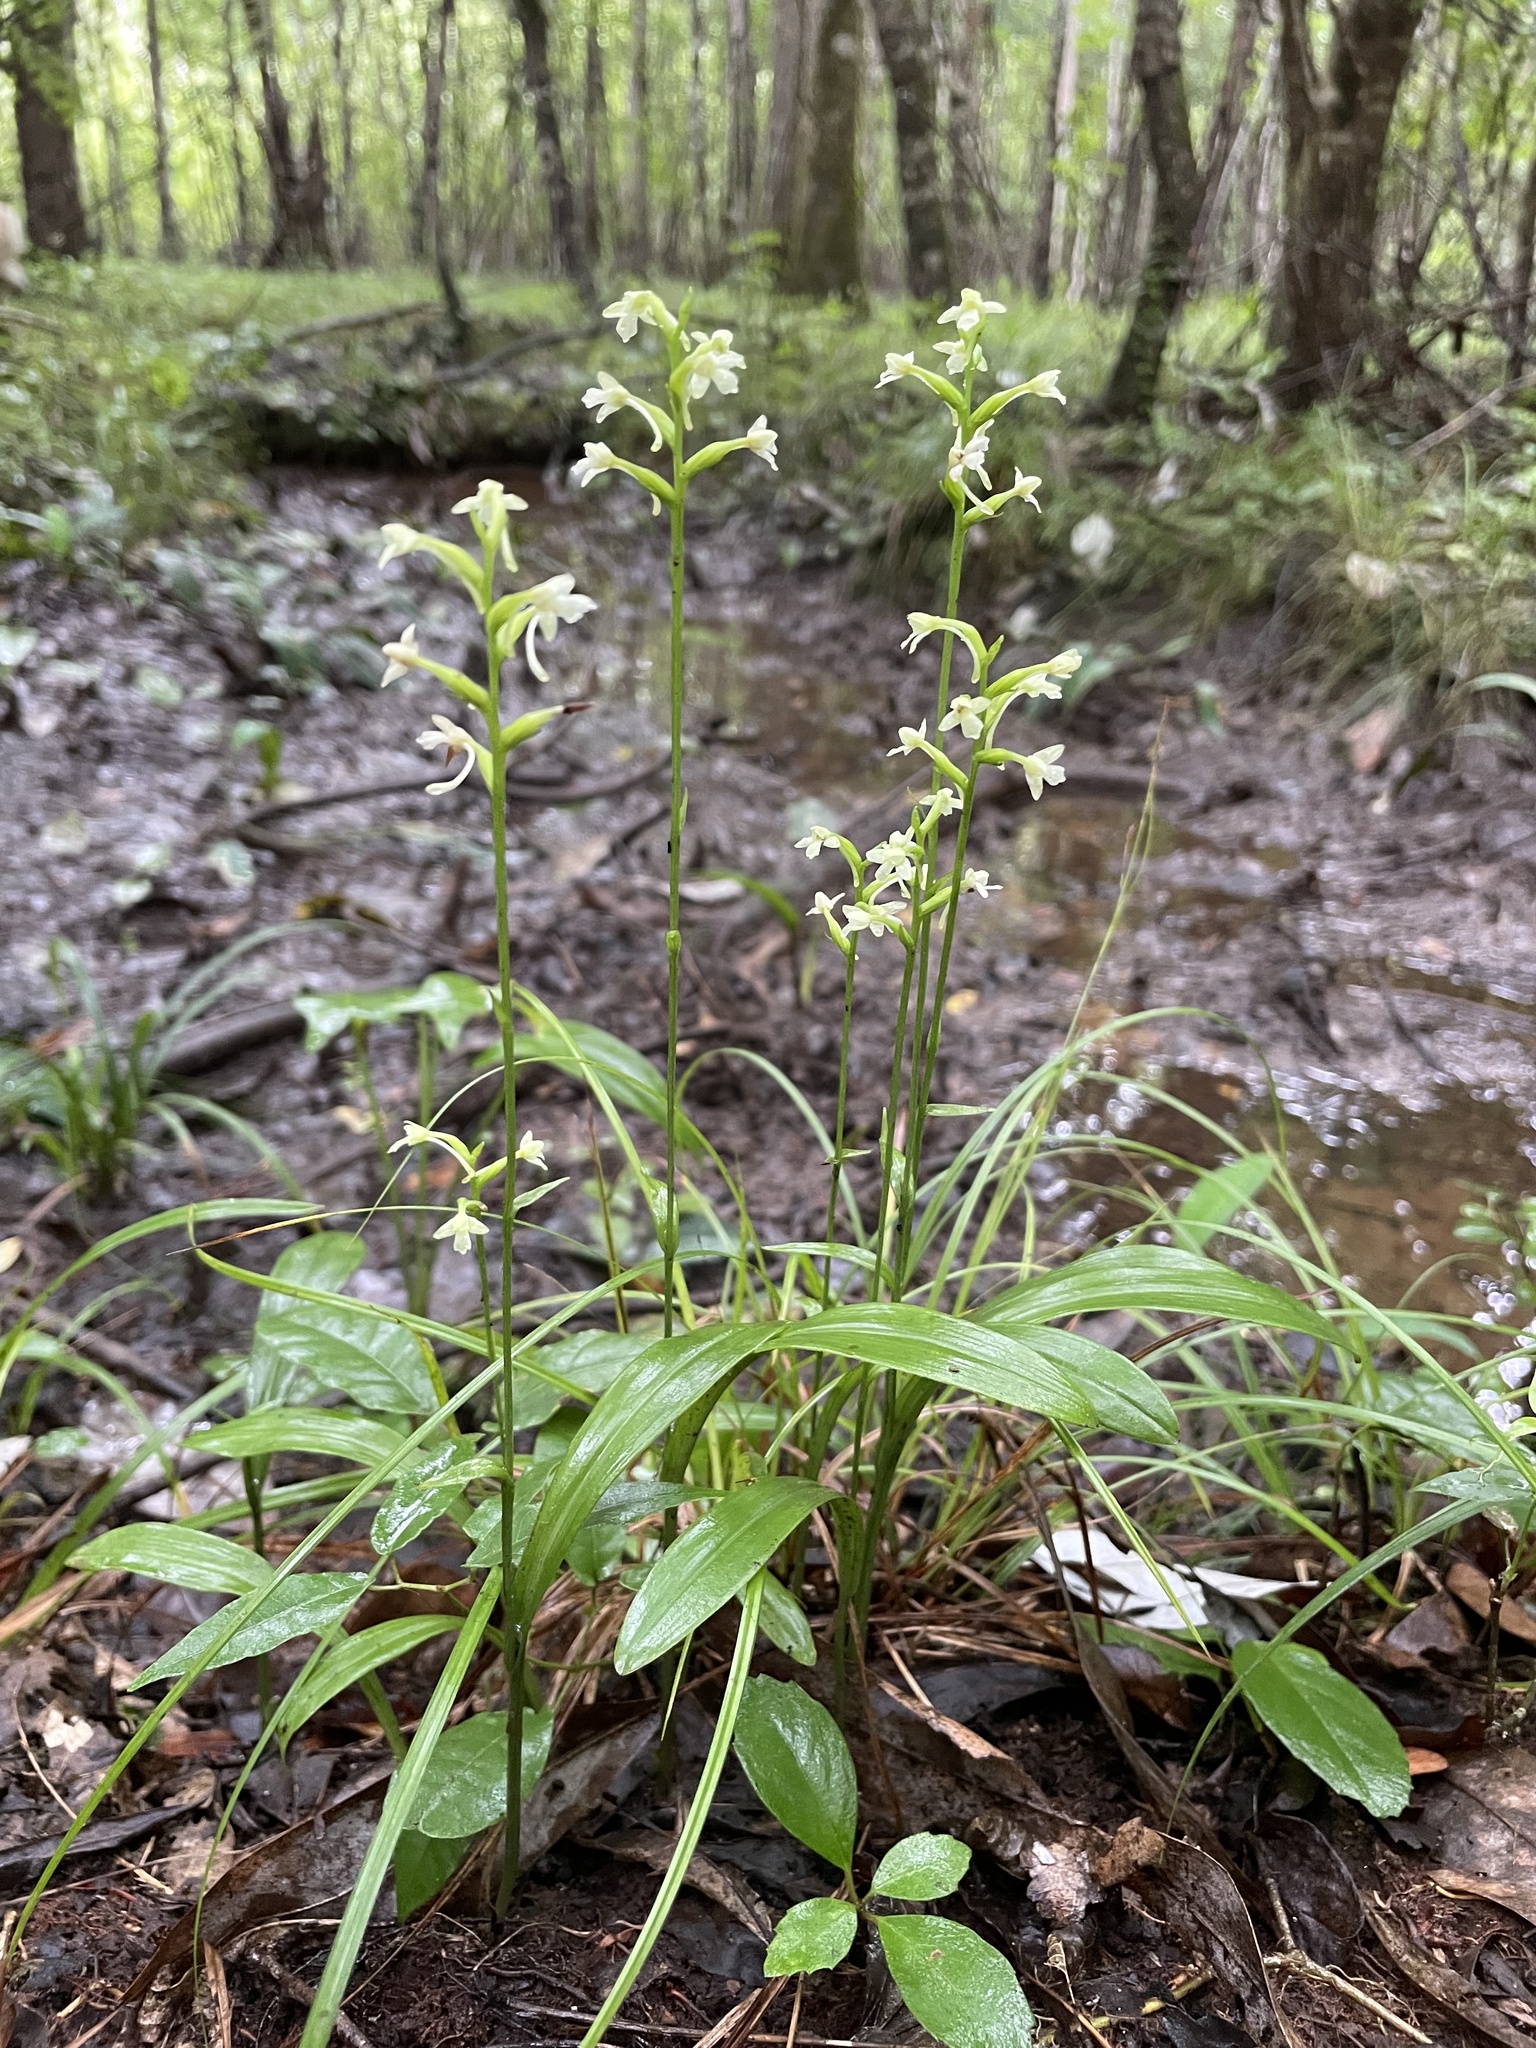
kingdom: Plantae
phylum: Tracheophyta
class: Liliopsida
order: Asparagales
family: Orchidaceae
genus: Platanthera
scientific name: Platanthera clavellata
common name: Club-spur orchid
